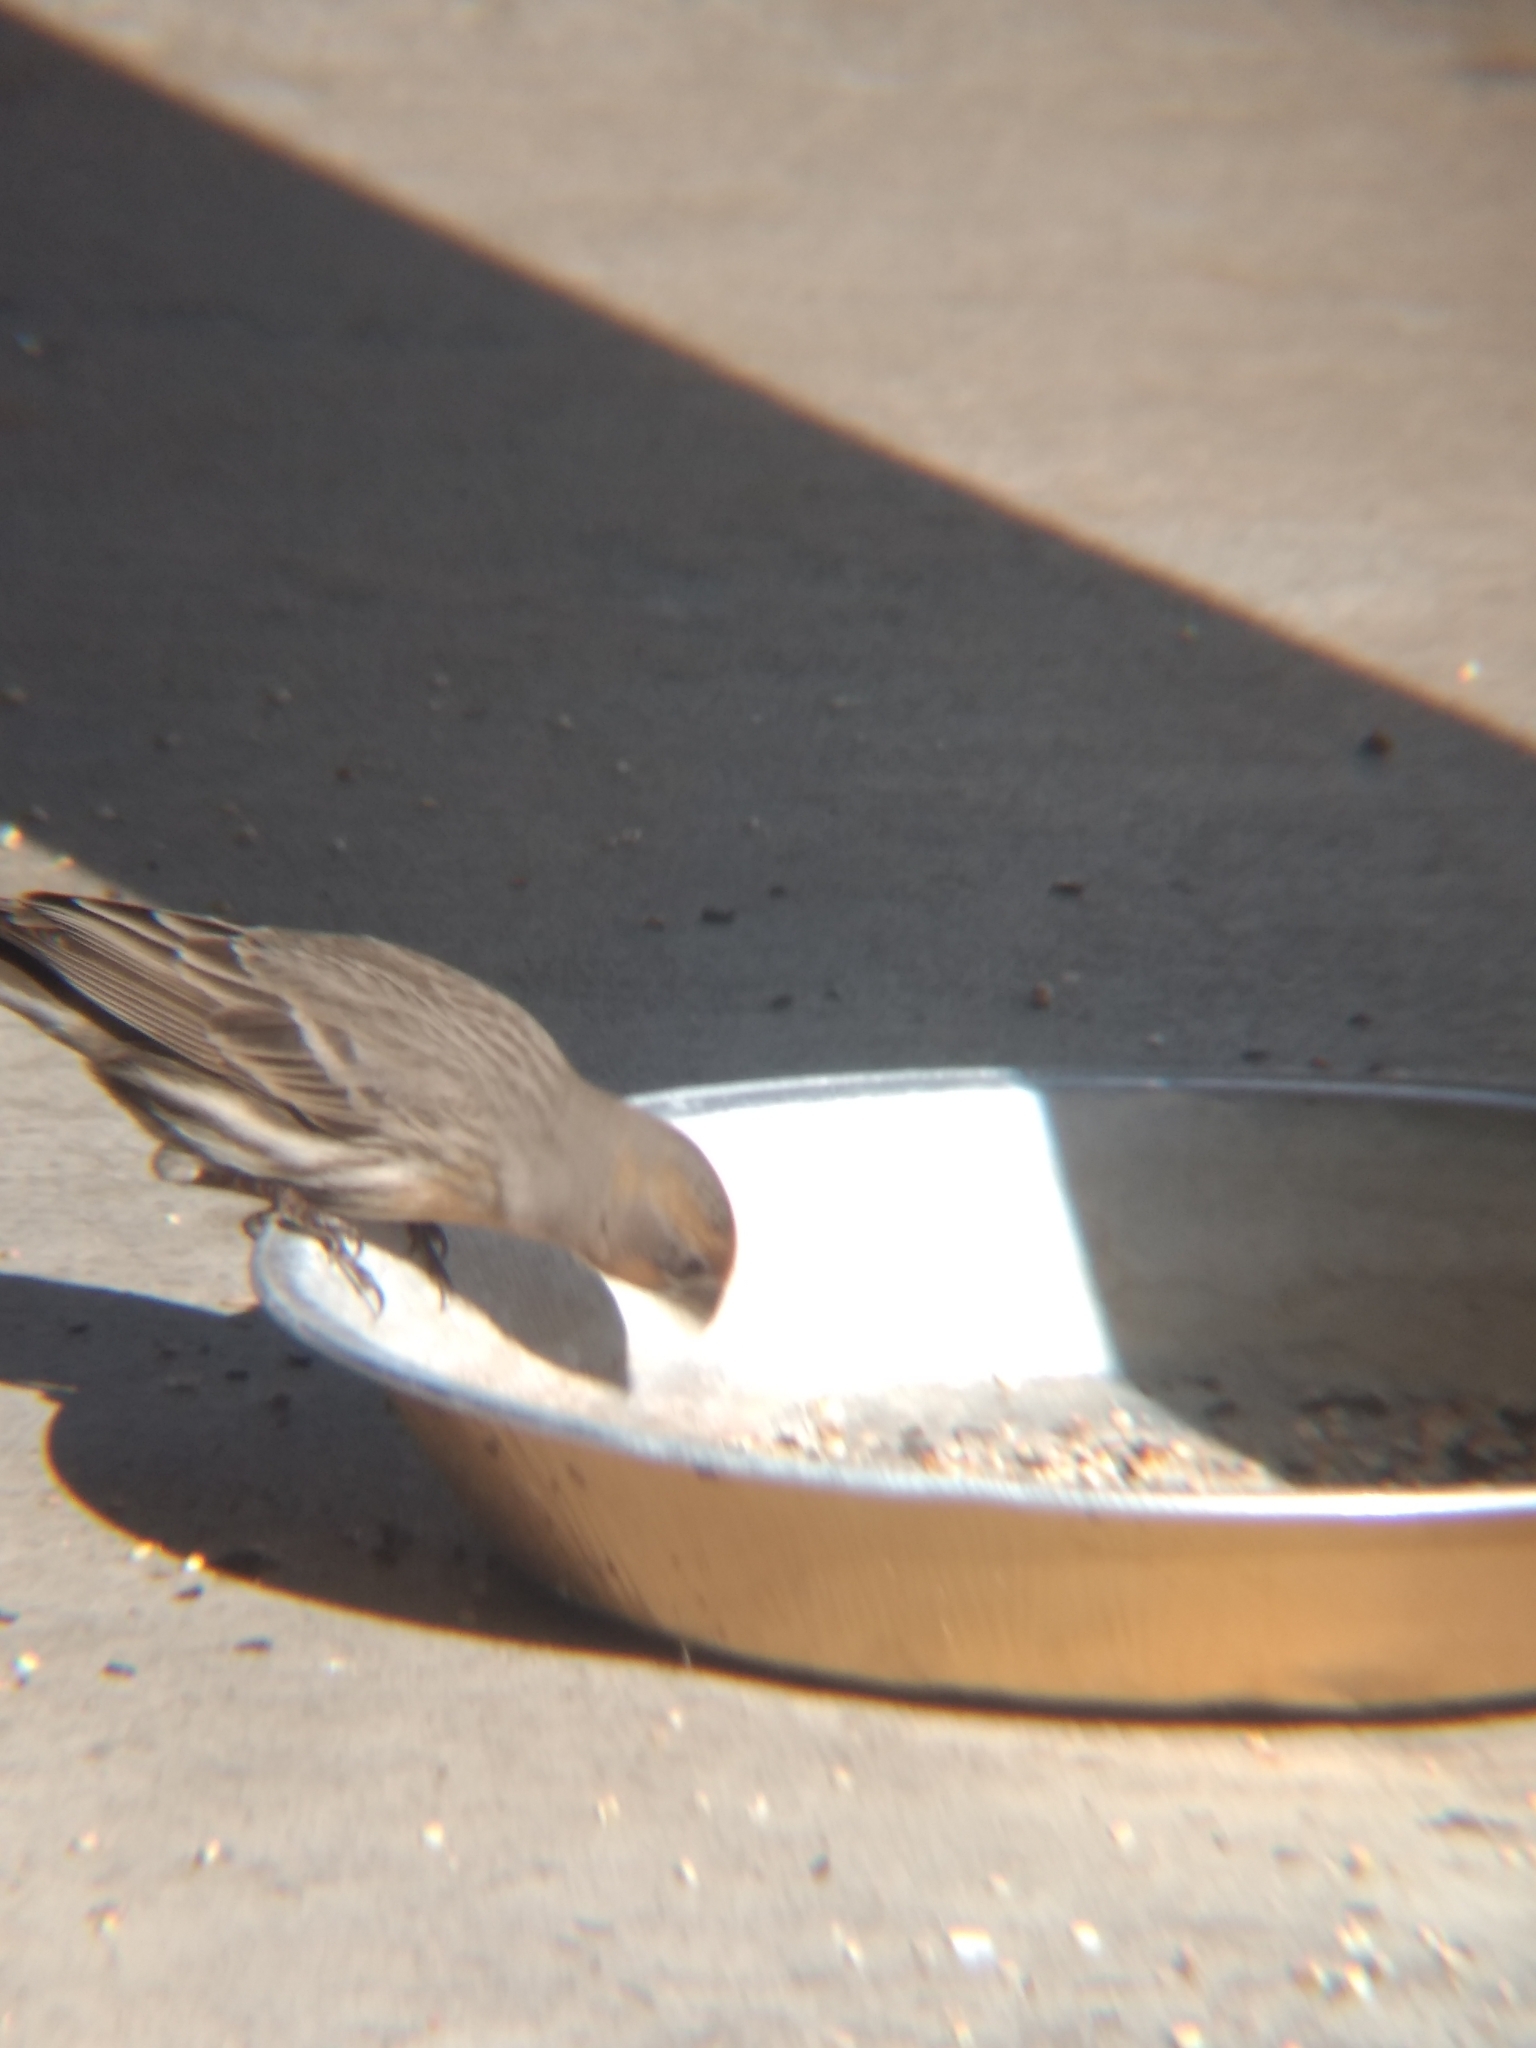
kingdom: Animalia
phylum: Chordata
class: Aves
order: Passeriformes
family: Fringillidae
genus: Haemorhous
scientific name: Haemorhous mexicanus
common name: House finch
